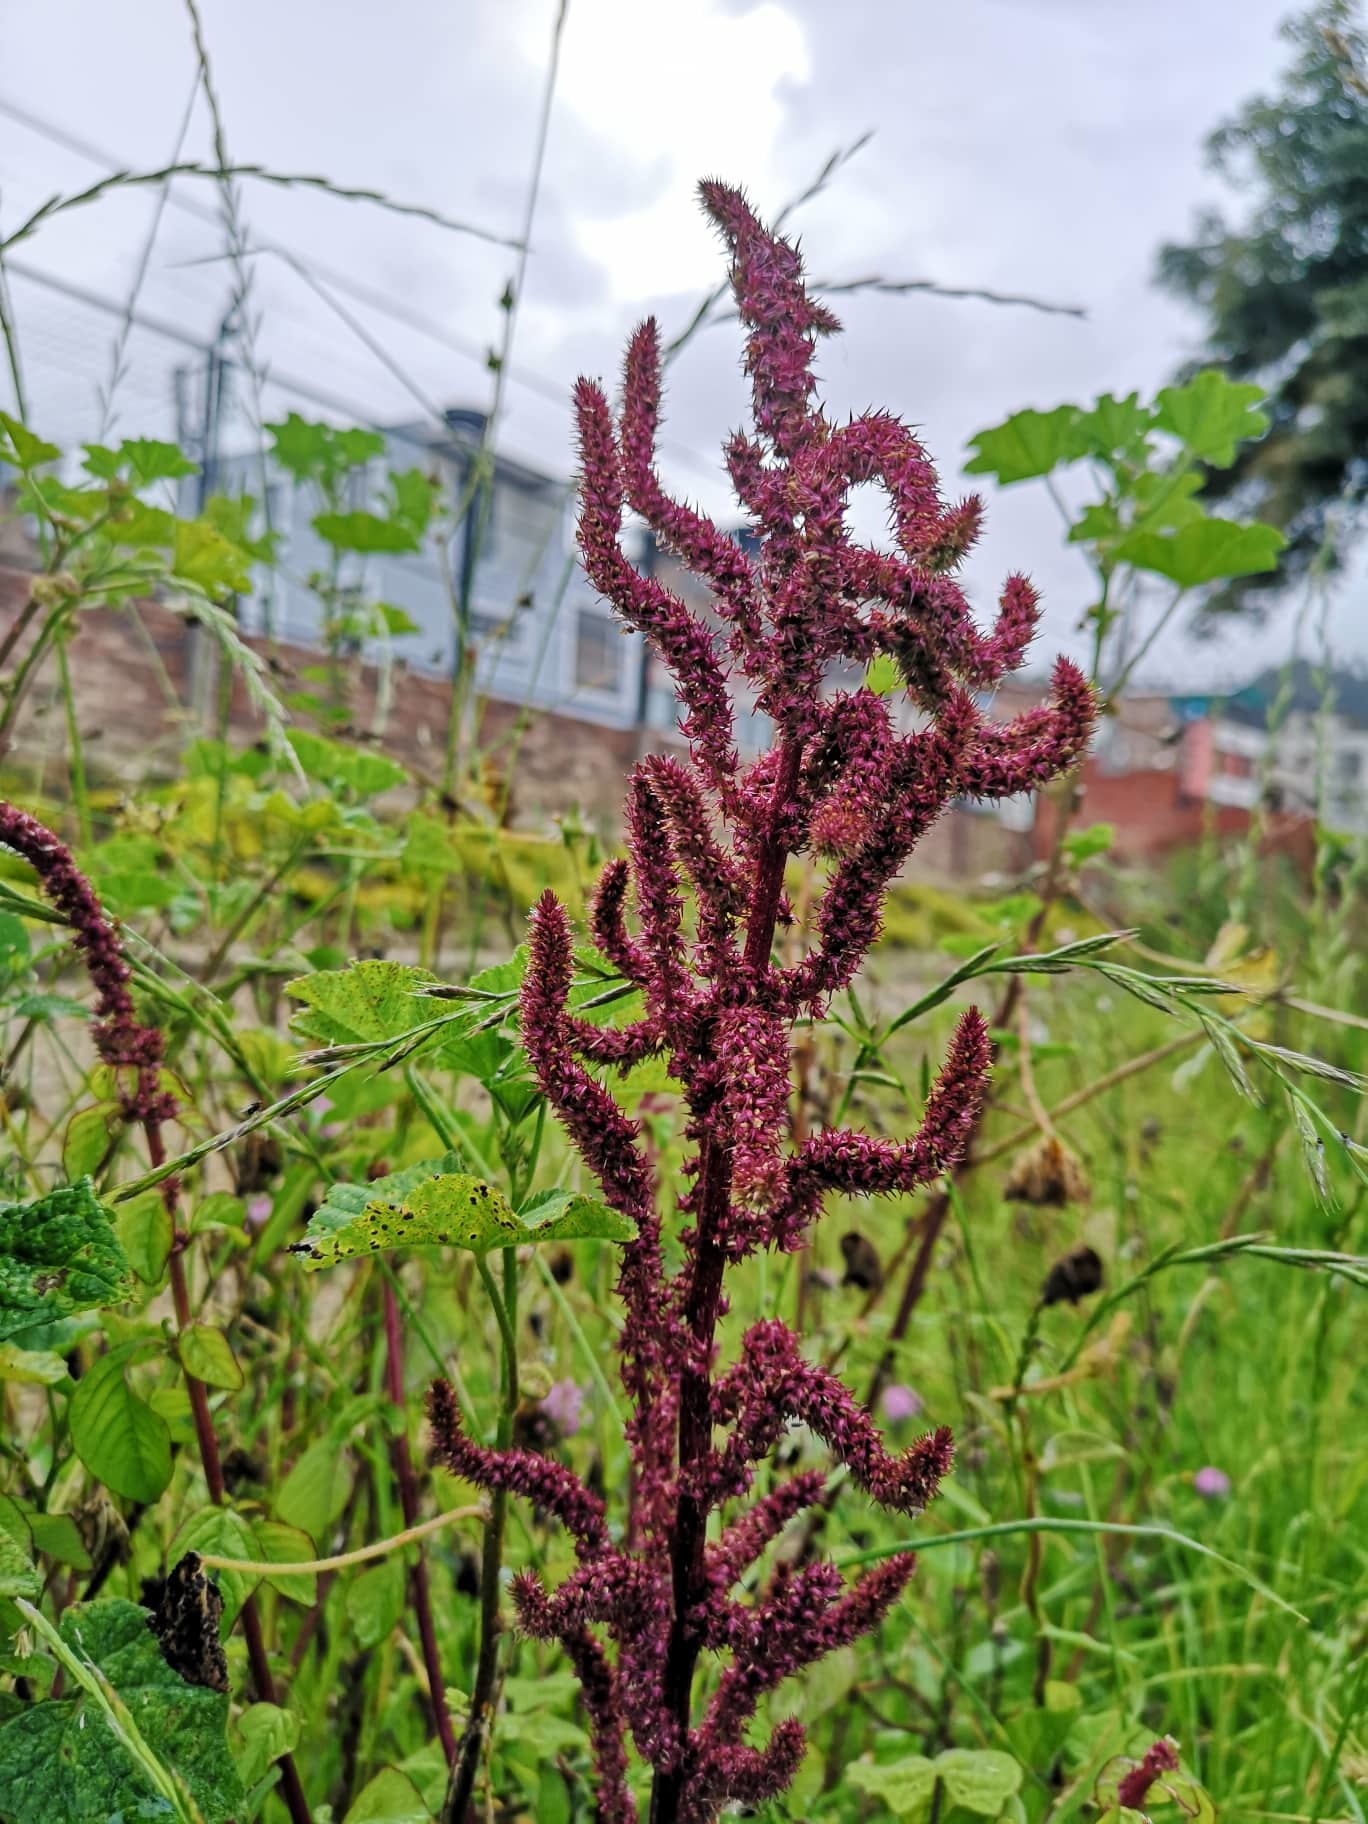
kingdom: Plantae
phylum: Tracheophyta
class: Magnoliopsida
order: Caryophyllales
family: Amaranthaceae
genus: Amaranthus
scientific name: Amaranthus caudatus
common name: Love-lies-bleeding
